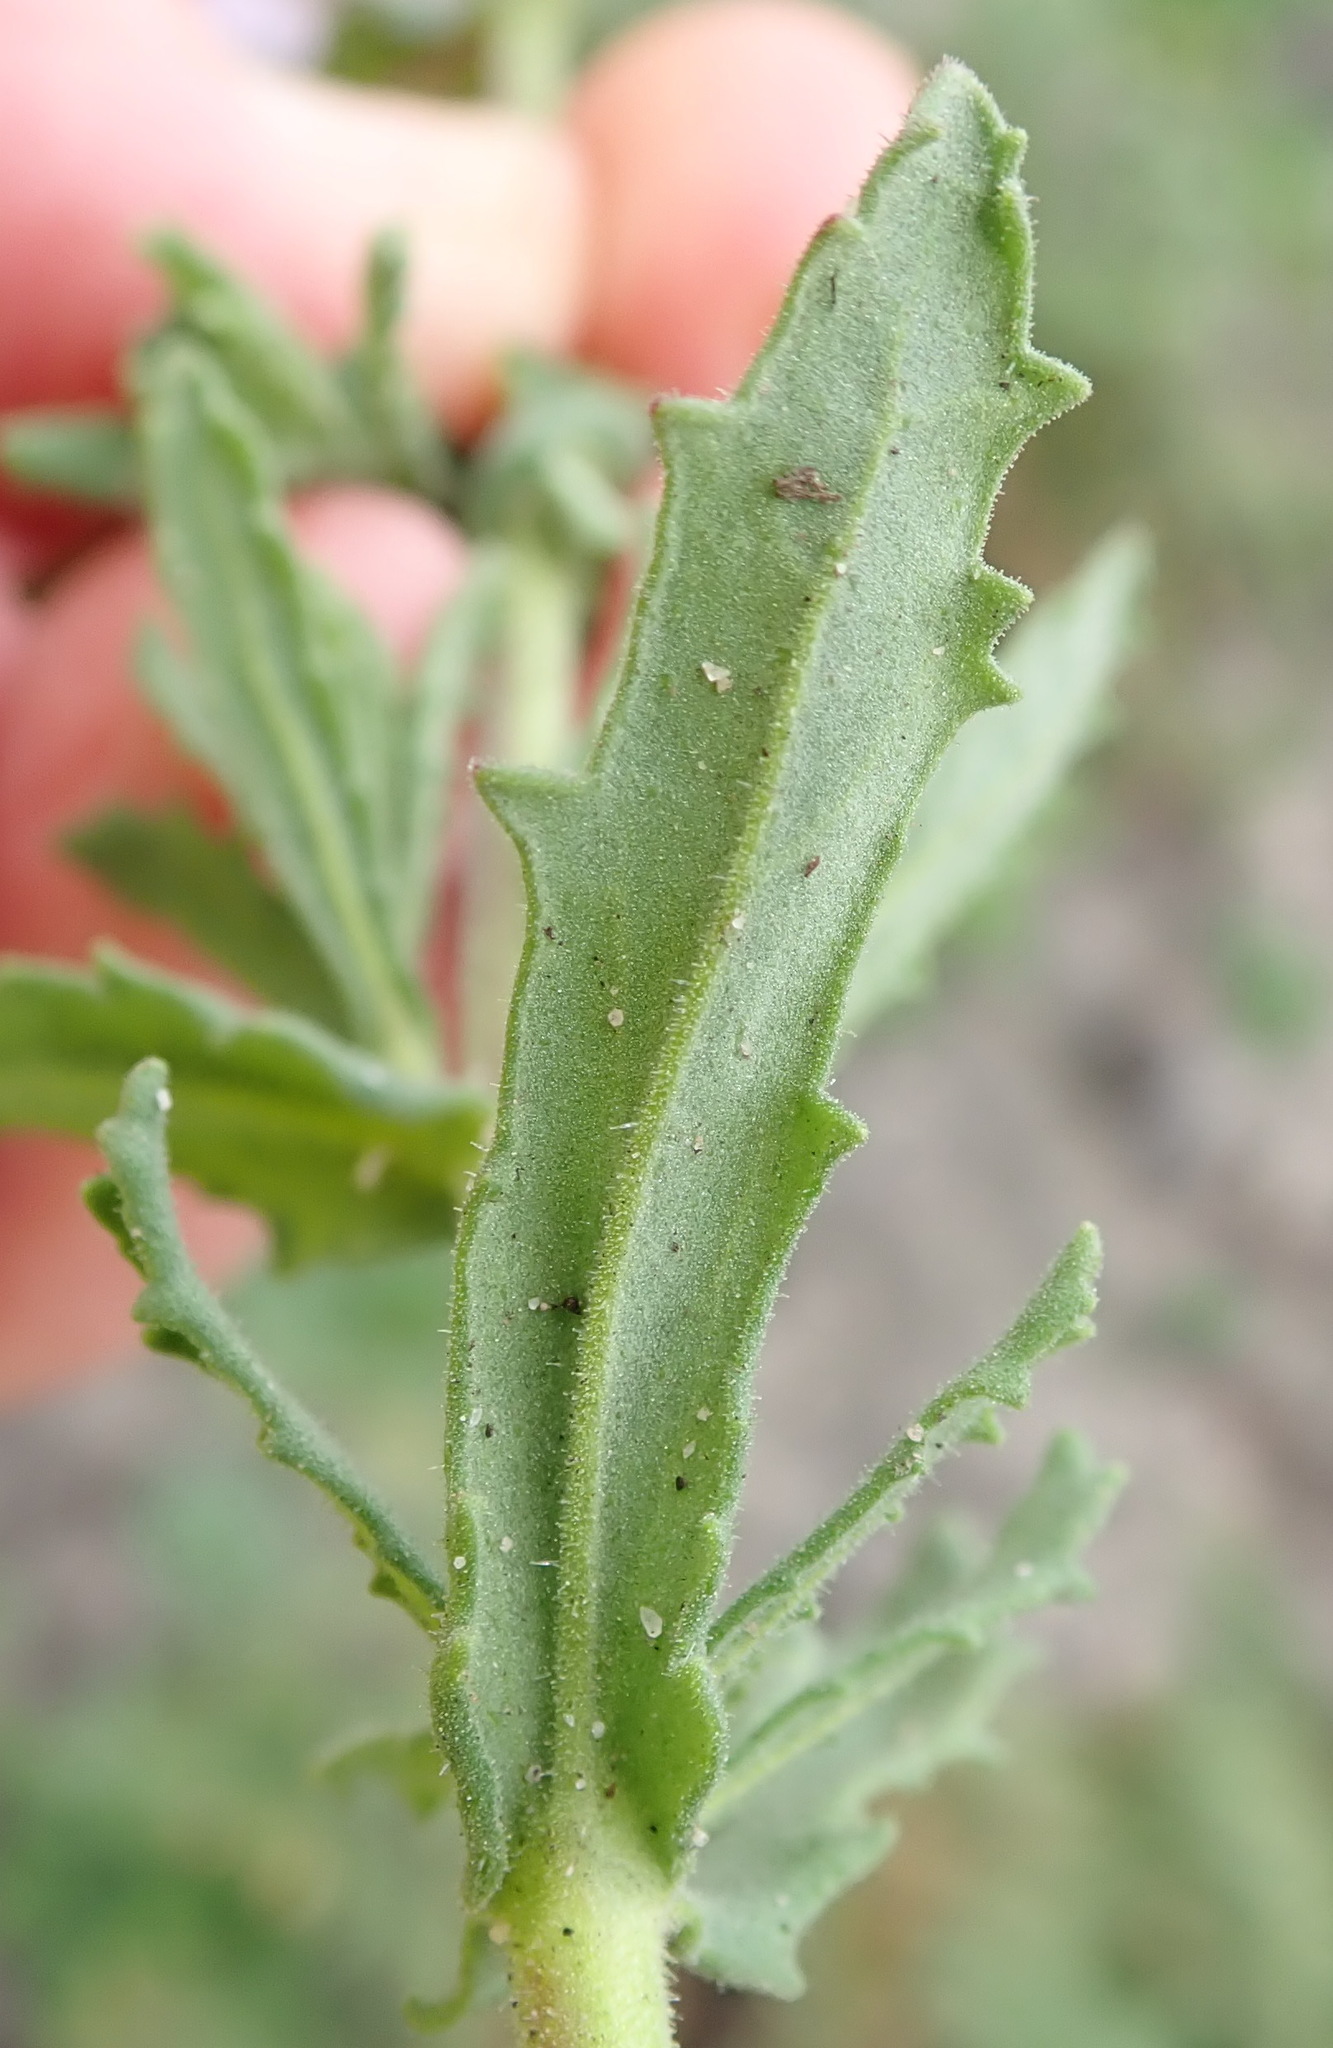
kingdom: Plantae
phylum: Tracheophyta
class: Magnoliopsida
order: Lamiales
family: Scrophulariaceae
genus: Chaenostoma
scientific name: Chaenostoma caeruleum
